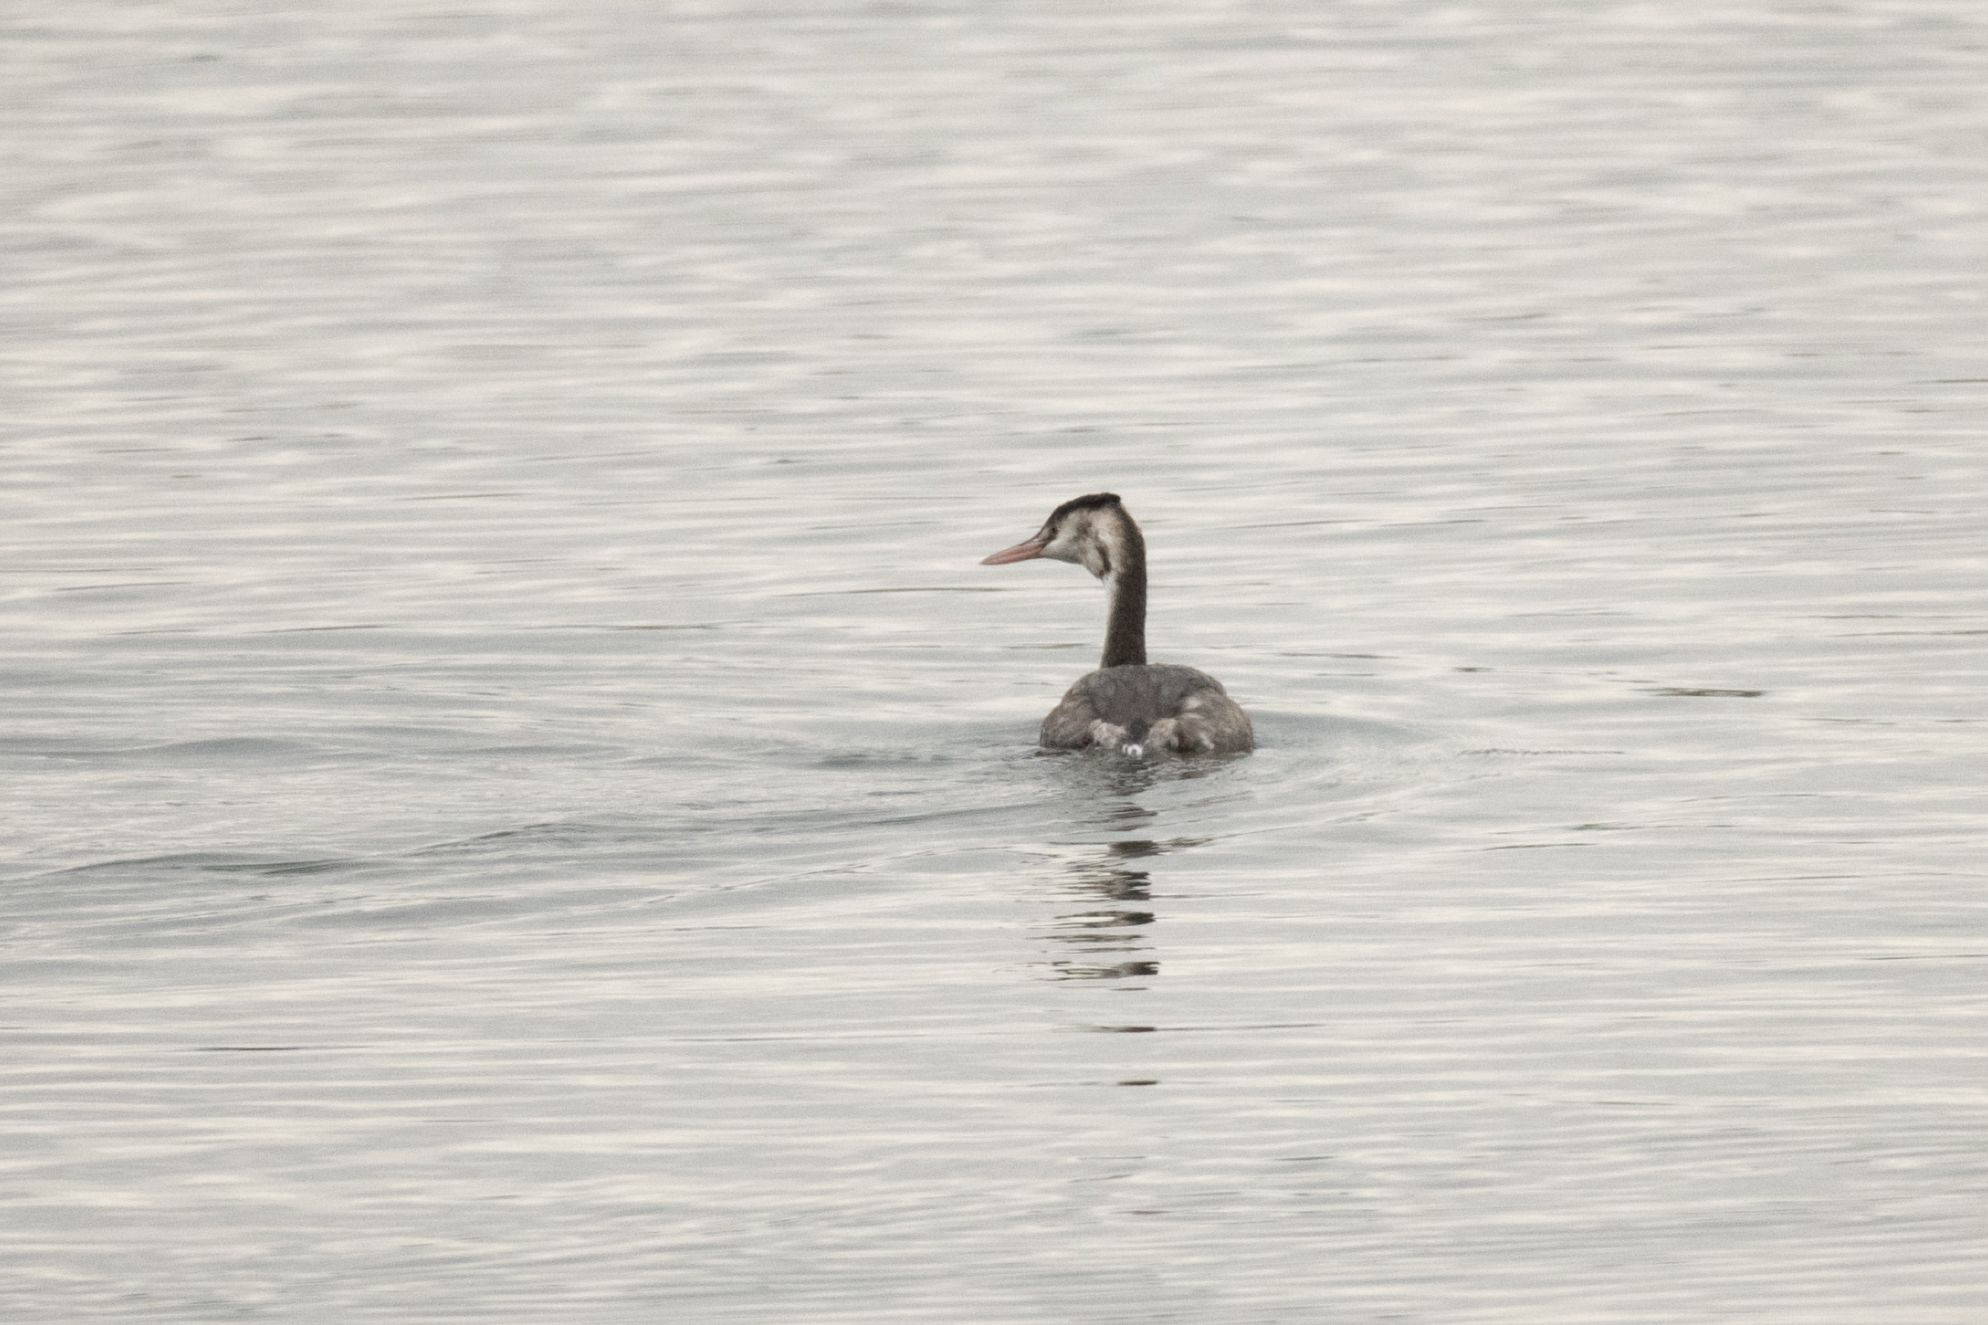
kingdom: Animalia
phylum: Chordata
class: Aves
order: Podicipediformes
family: Podicipedidae
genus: Podiceps
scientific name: Podiceps cristatus
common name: Great crested grebe
